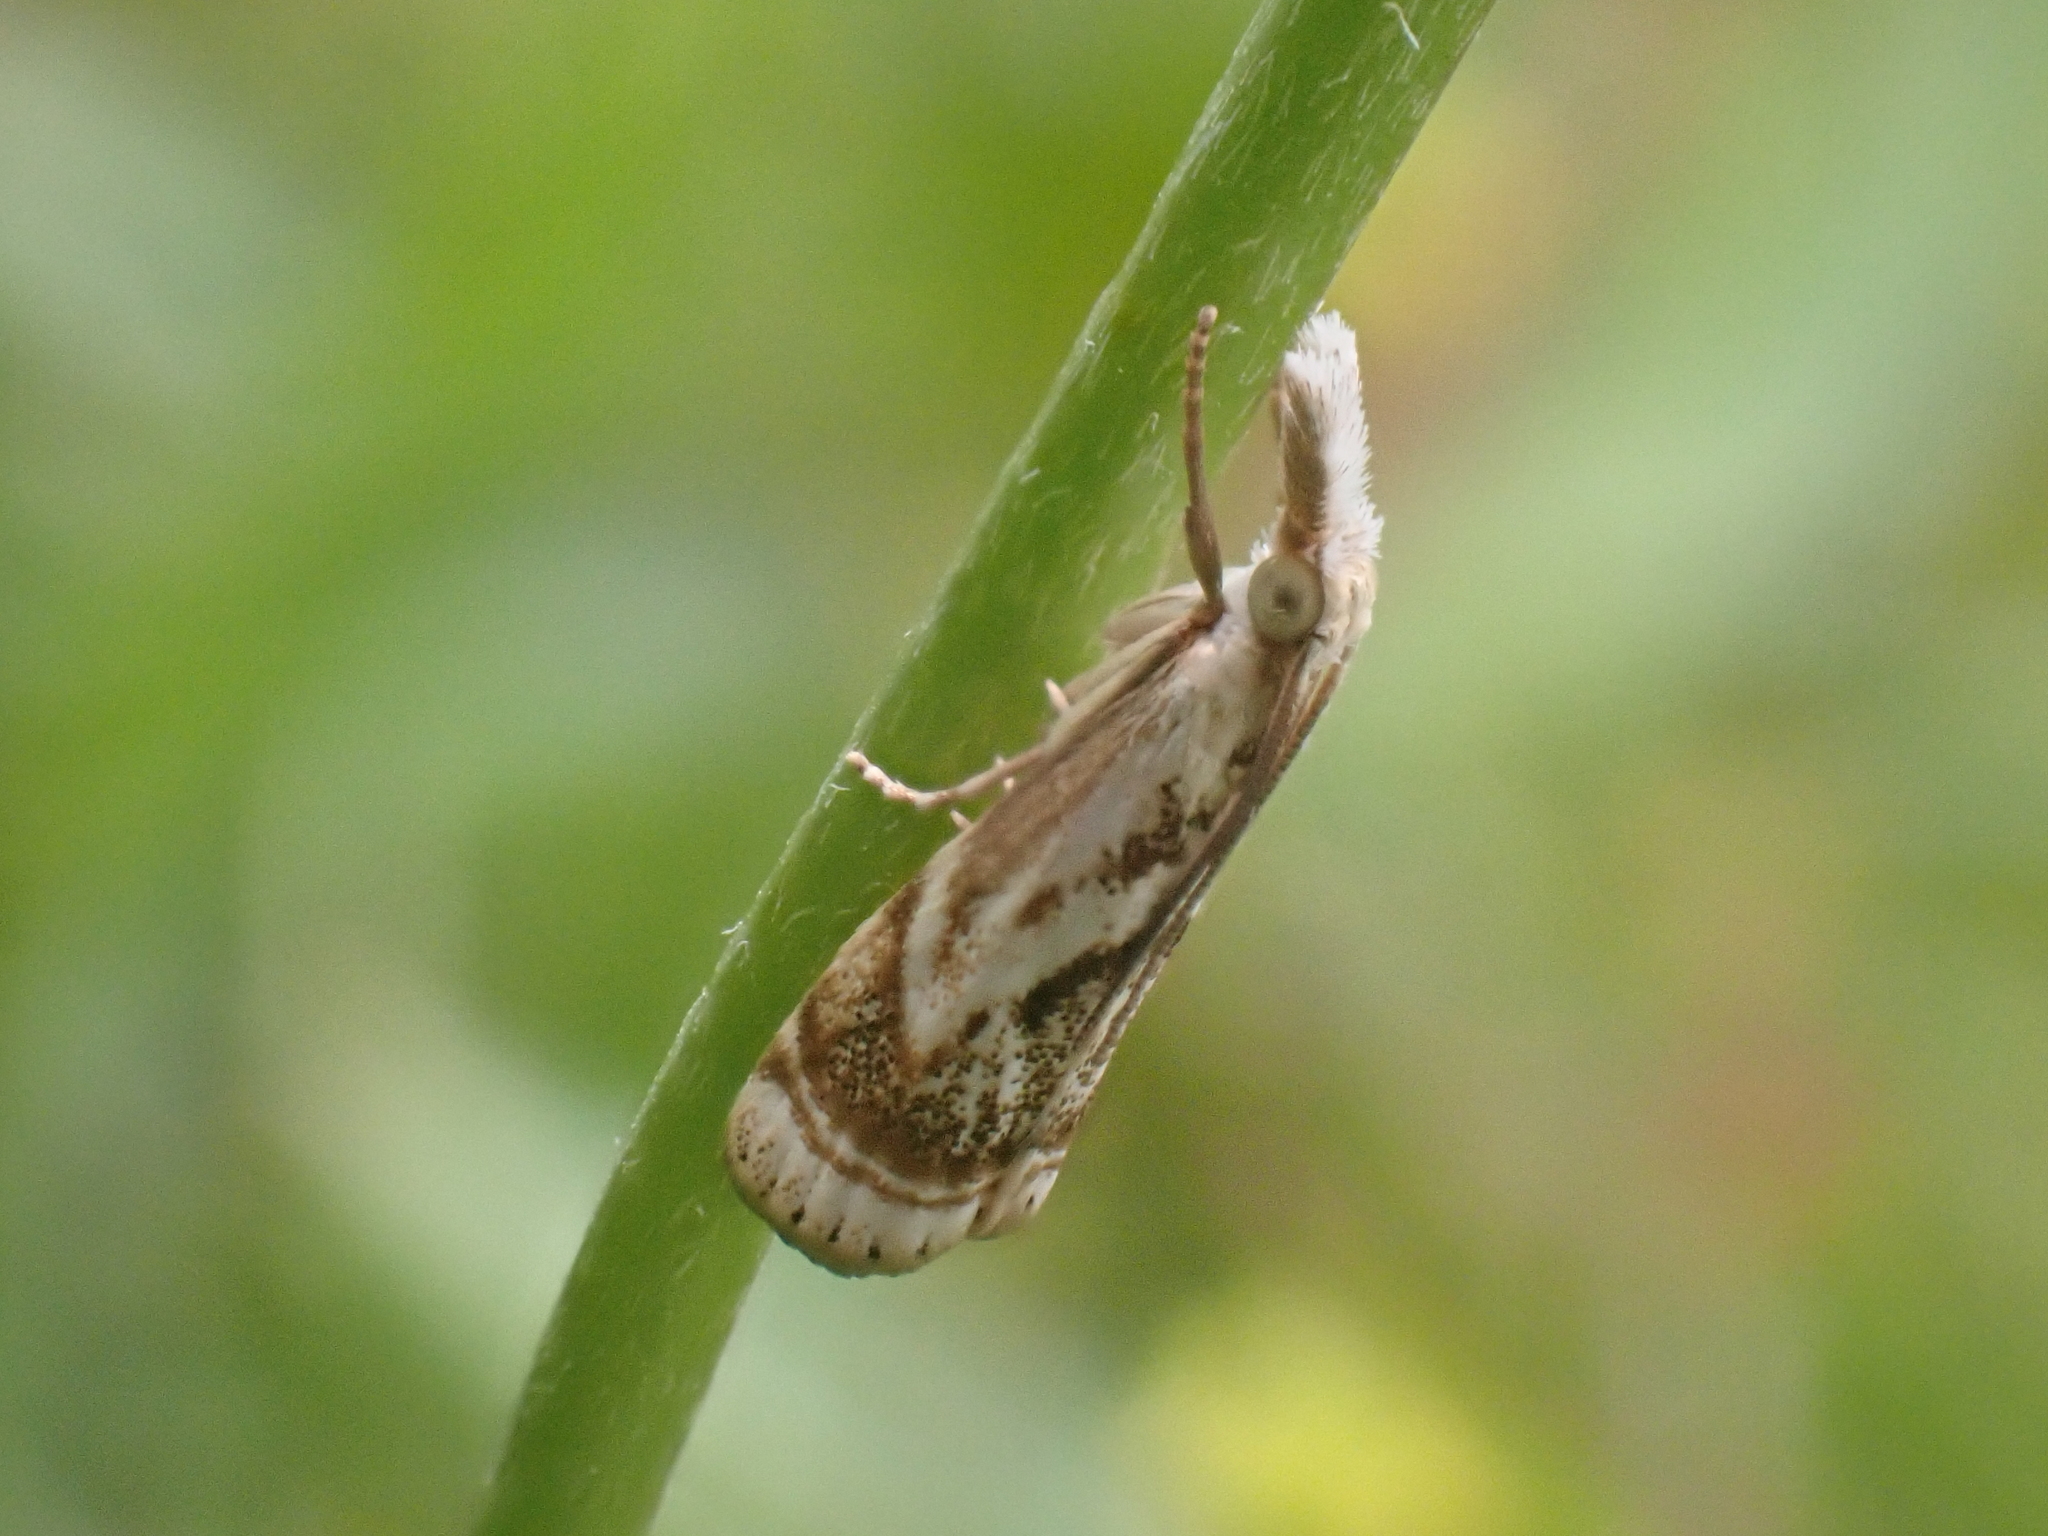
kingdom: Animalia
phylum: Arthropoda
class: Insecta
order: Lepidoptera
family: Crambidae
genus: Microcrambus
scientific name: Microcrambus elegans
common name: Elegant grass-veneer
